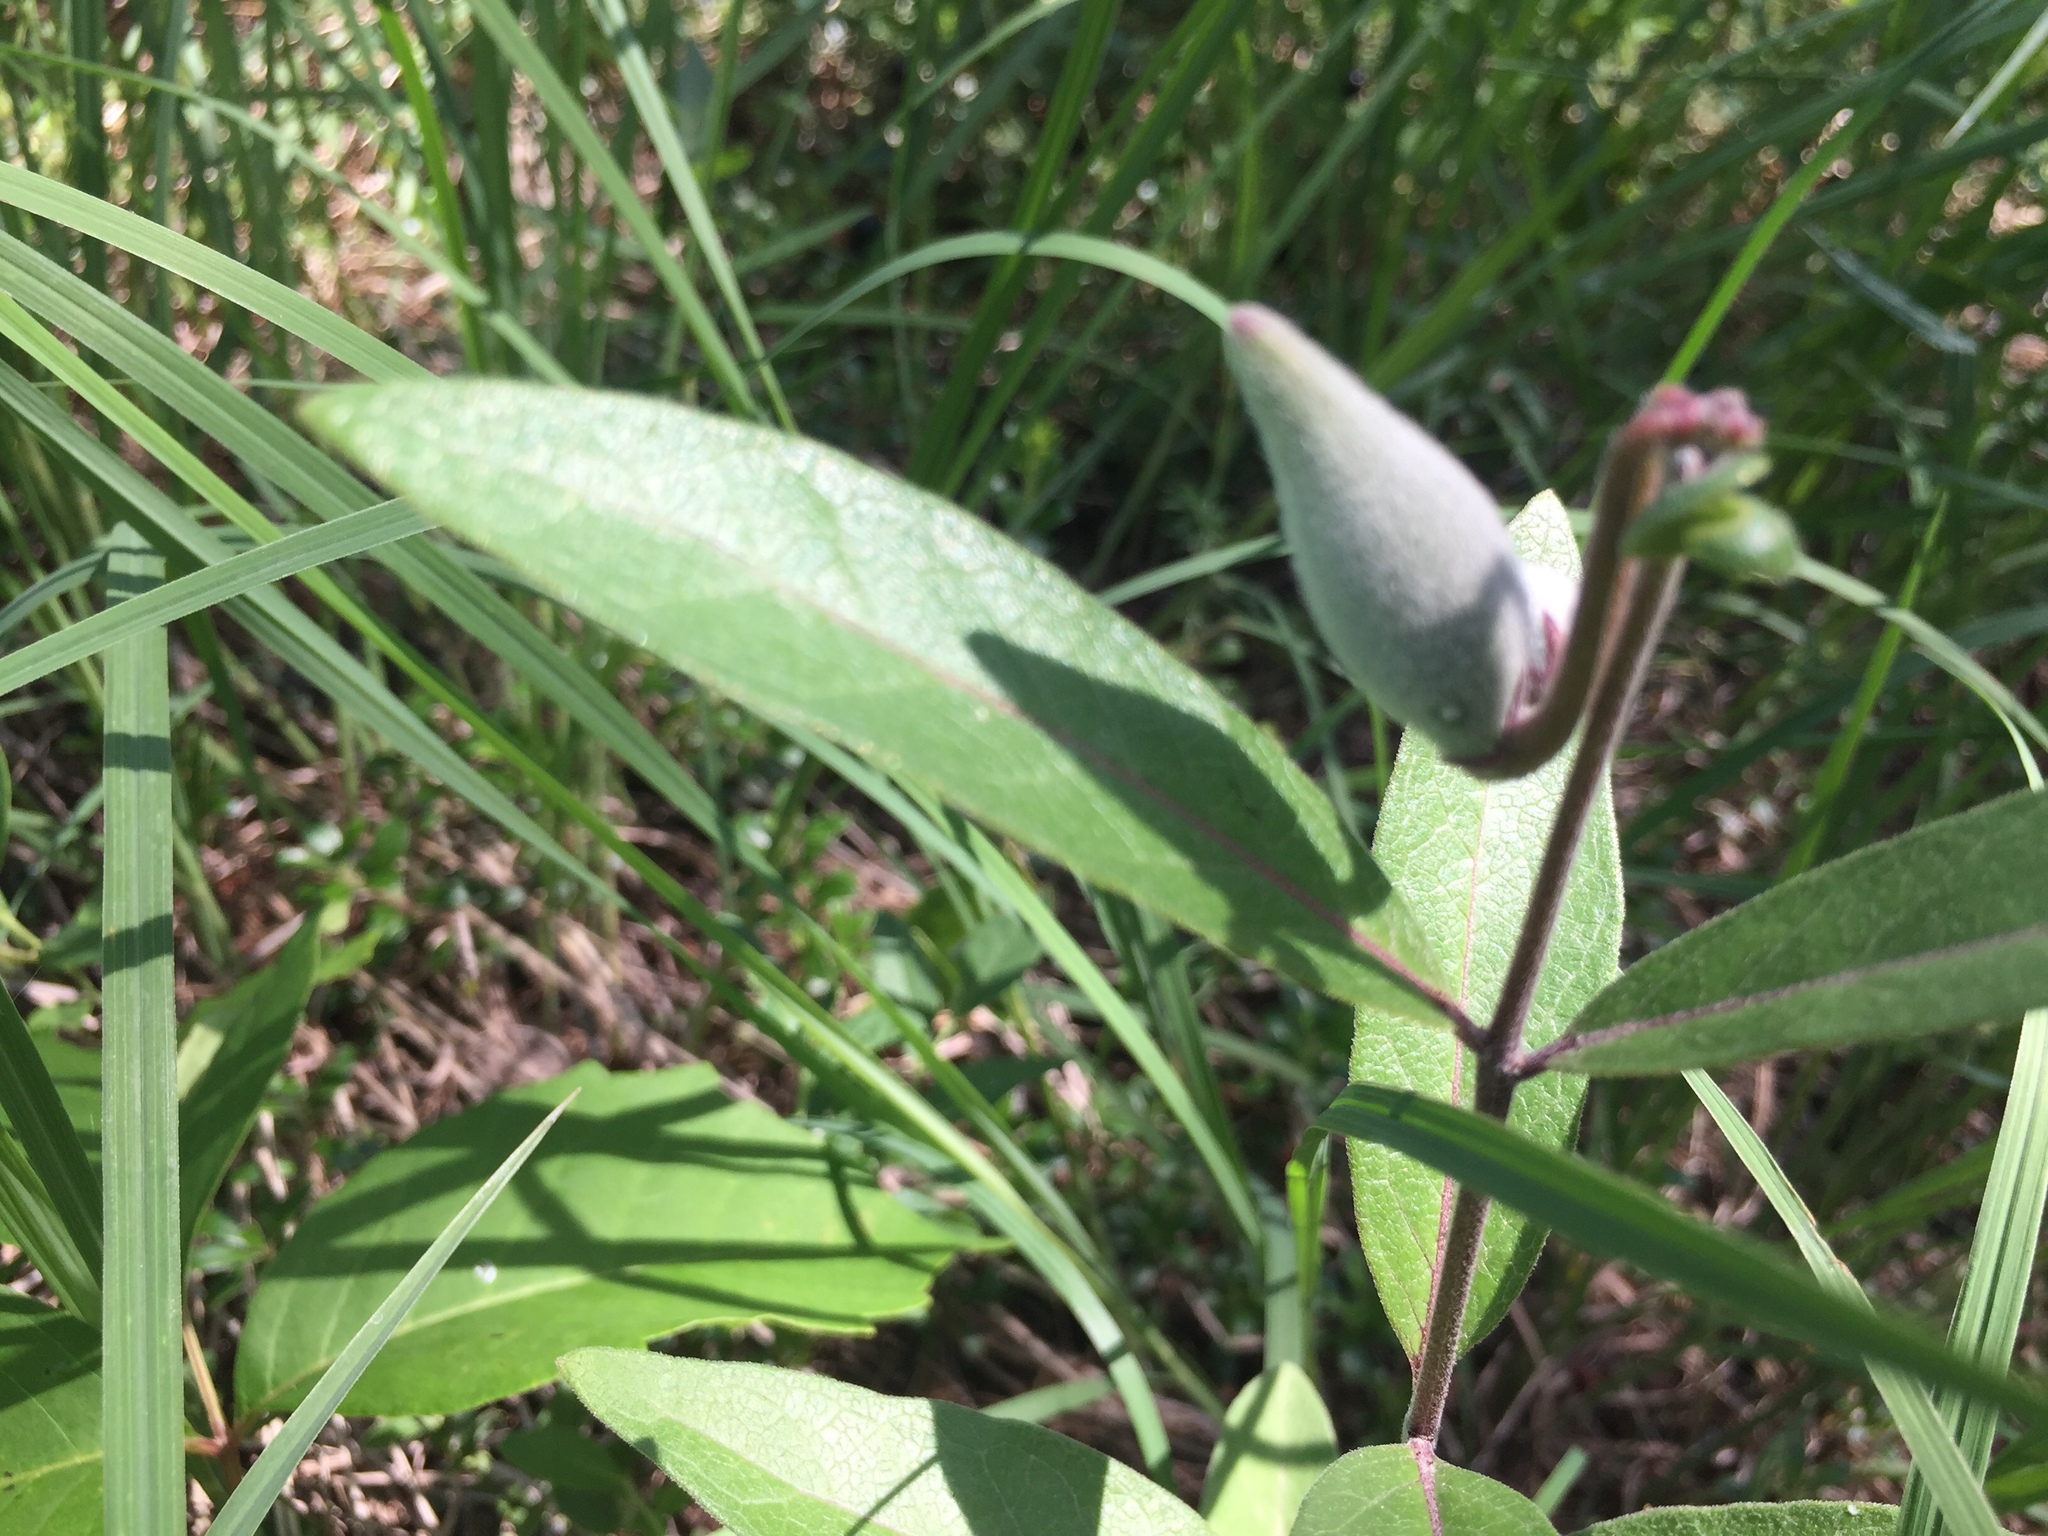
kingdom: Plantae
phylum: Tracheophyta
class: Magnoliopsida
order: Gentianales
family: Apocynaceae
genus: Asclepias
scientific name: Asclepias ovalifolia
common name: Dwarf milkweed
